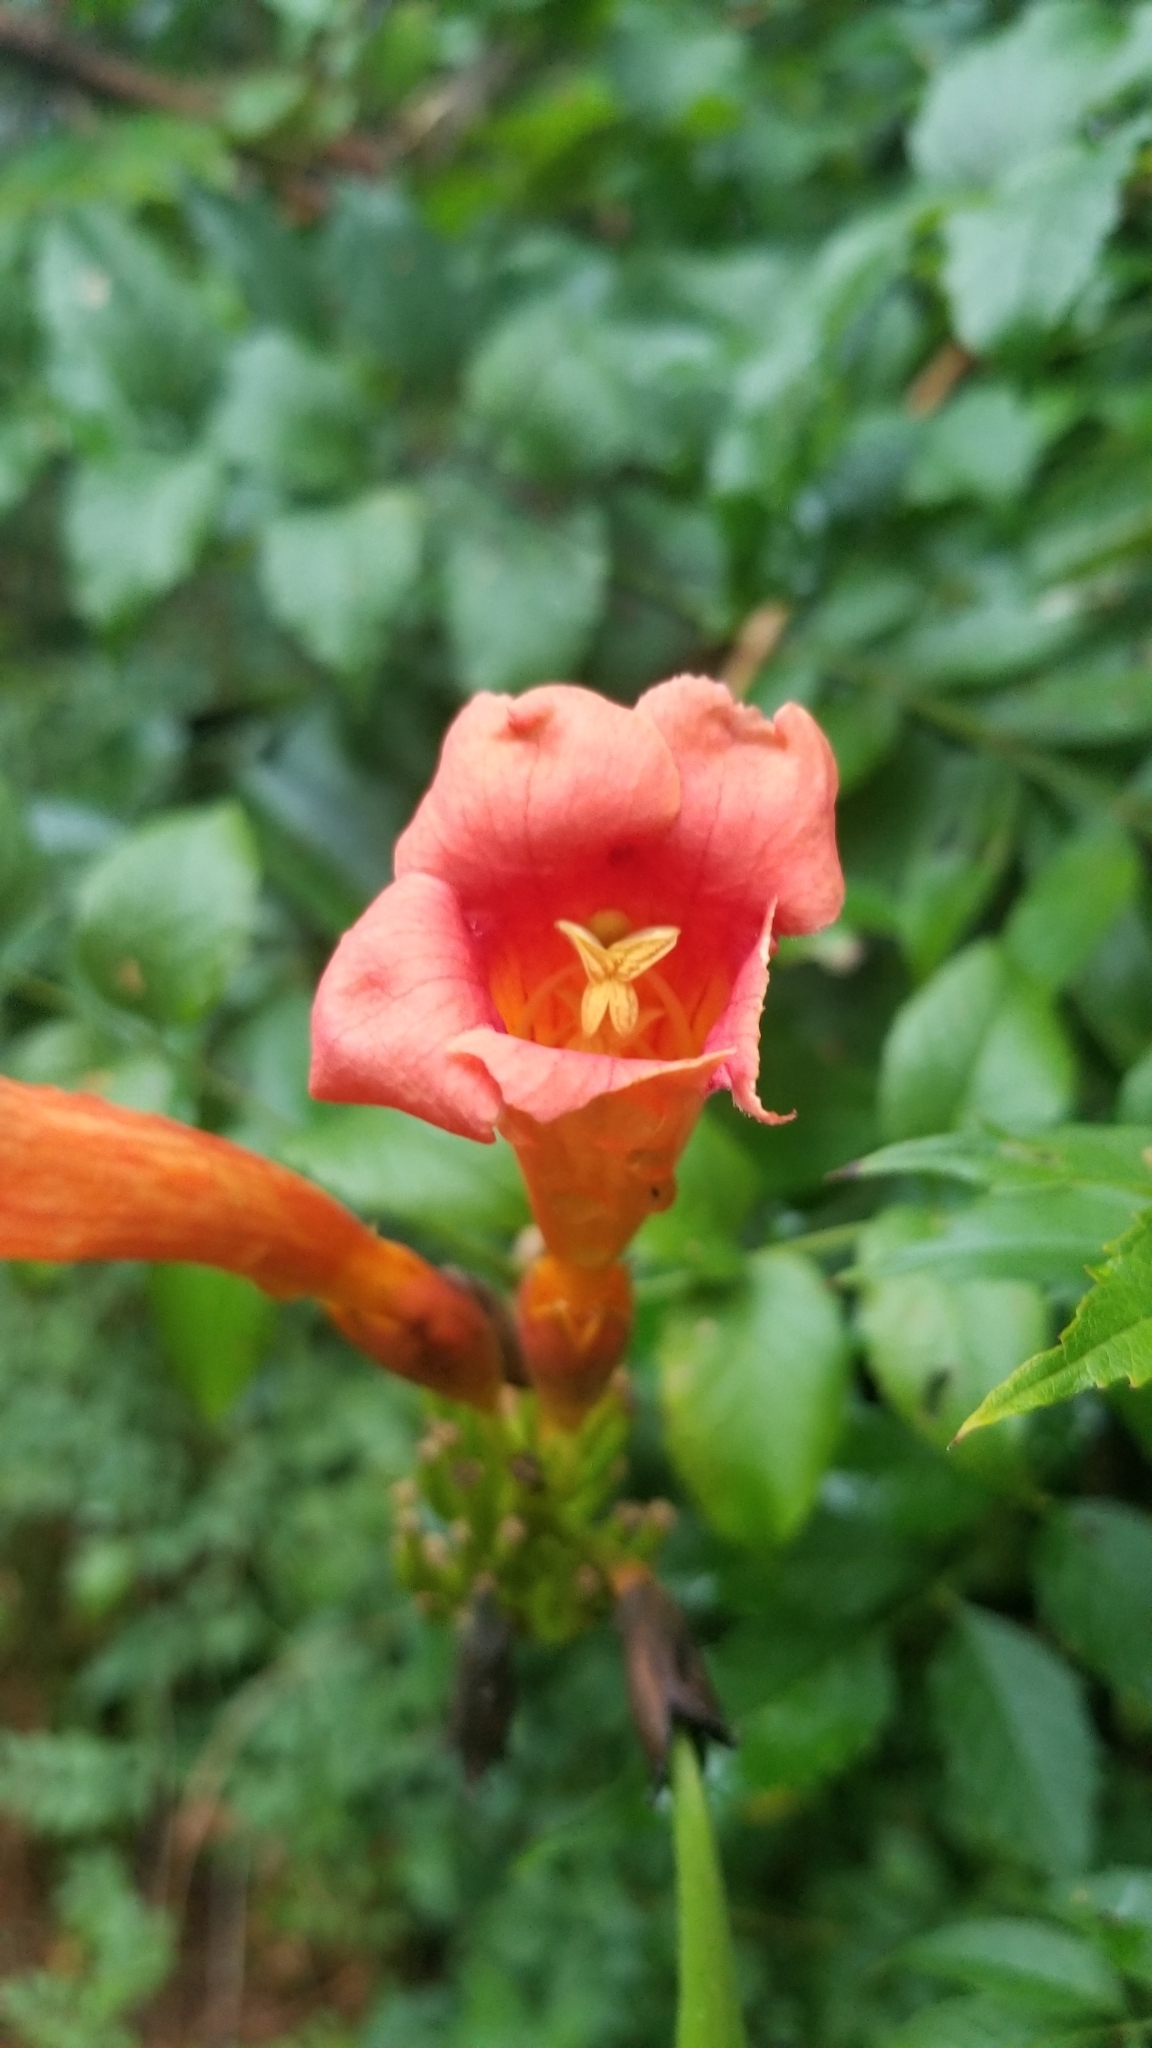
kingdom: Plantae
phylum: Tracheophyta
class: Magnoliopsida
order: Lamiales
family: Bignoniaceae
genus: Campsis
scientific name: Campsis radicans
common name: Trumpet-creeper
